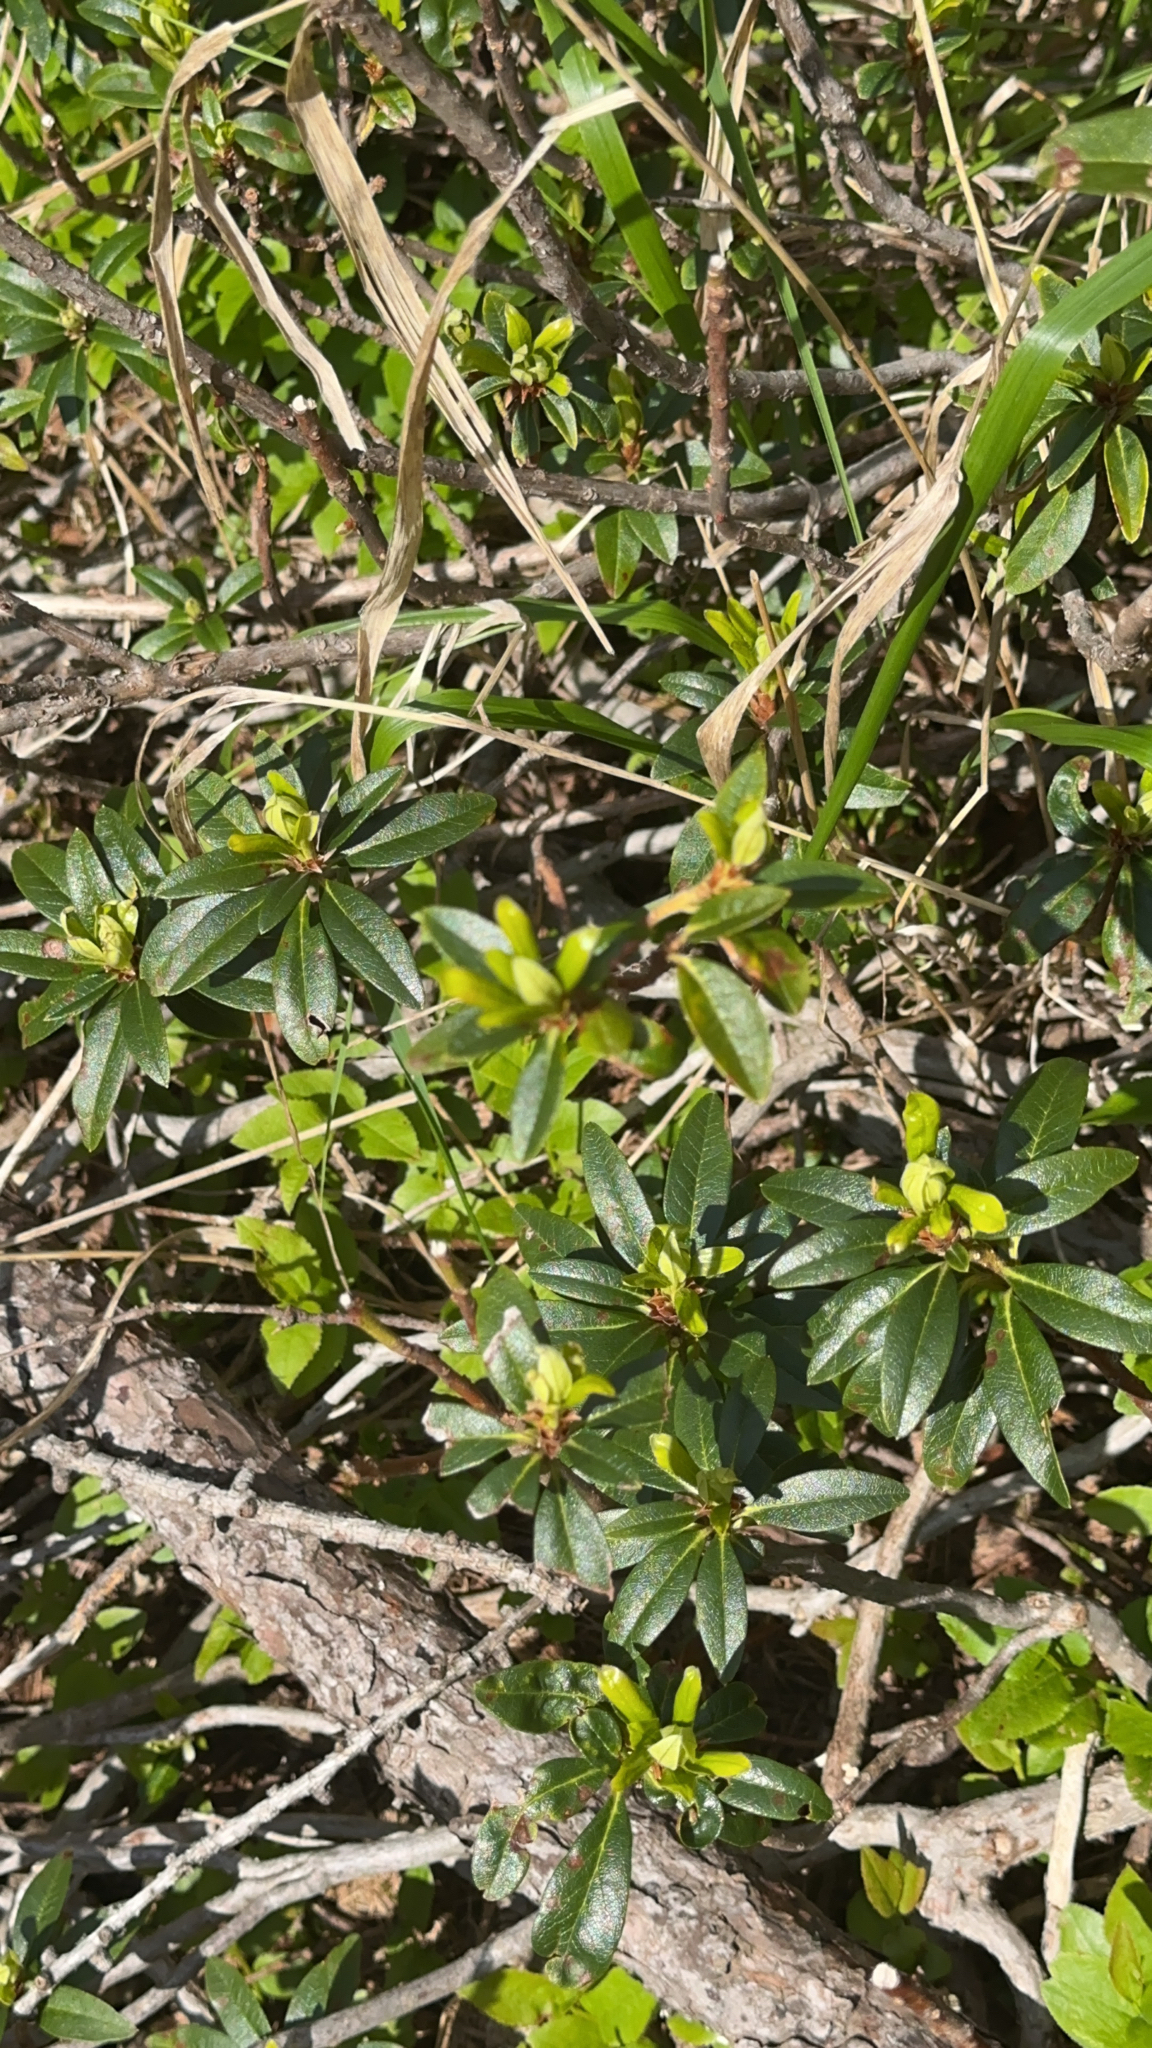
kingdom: Plantae
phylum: Tracheophyta
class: Magnoliopsida
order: Ericales
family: Ericaceae
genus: Rhododendron
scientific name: Rhododendron ferrugineum
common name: Alpenrose
